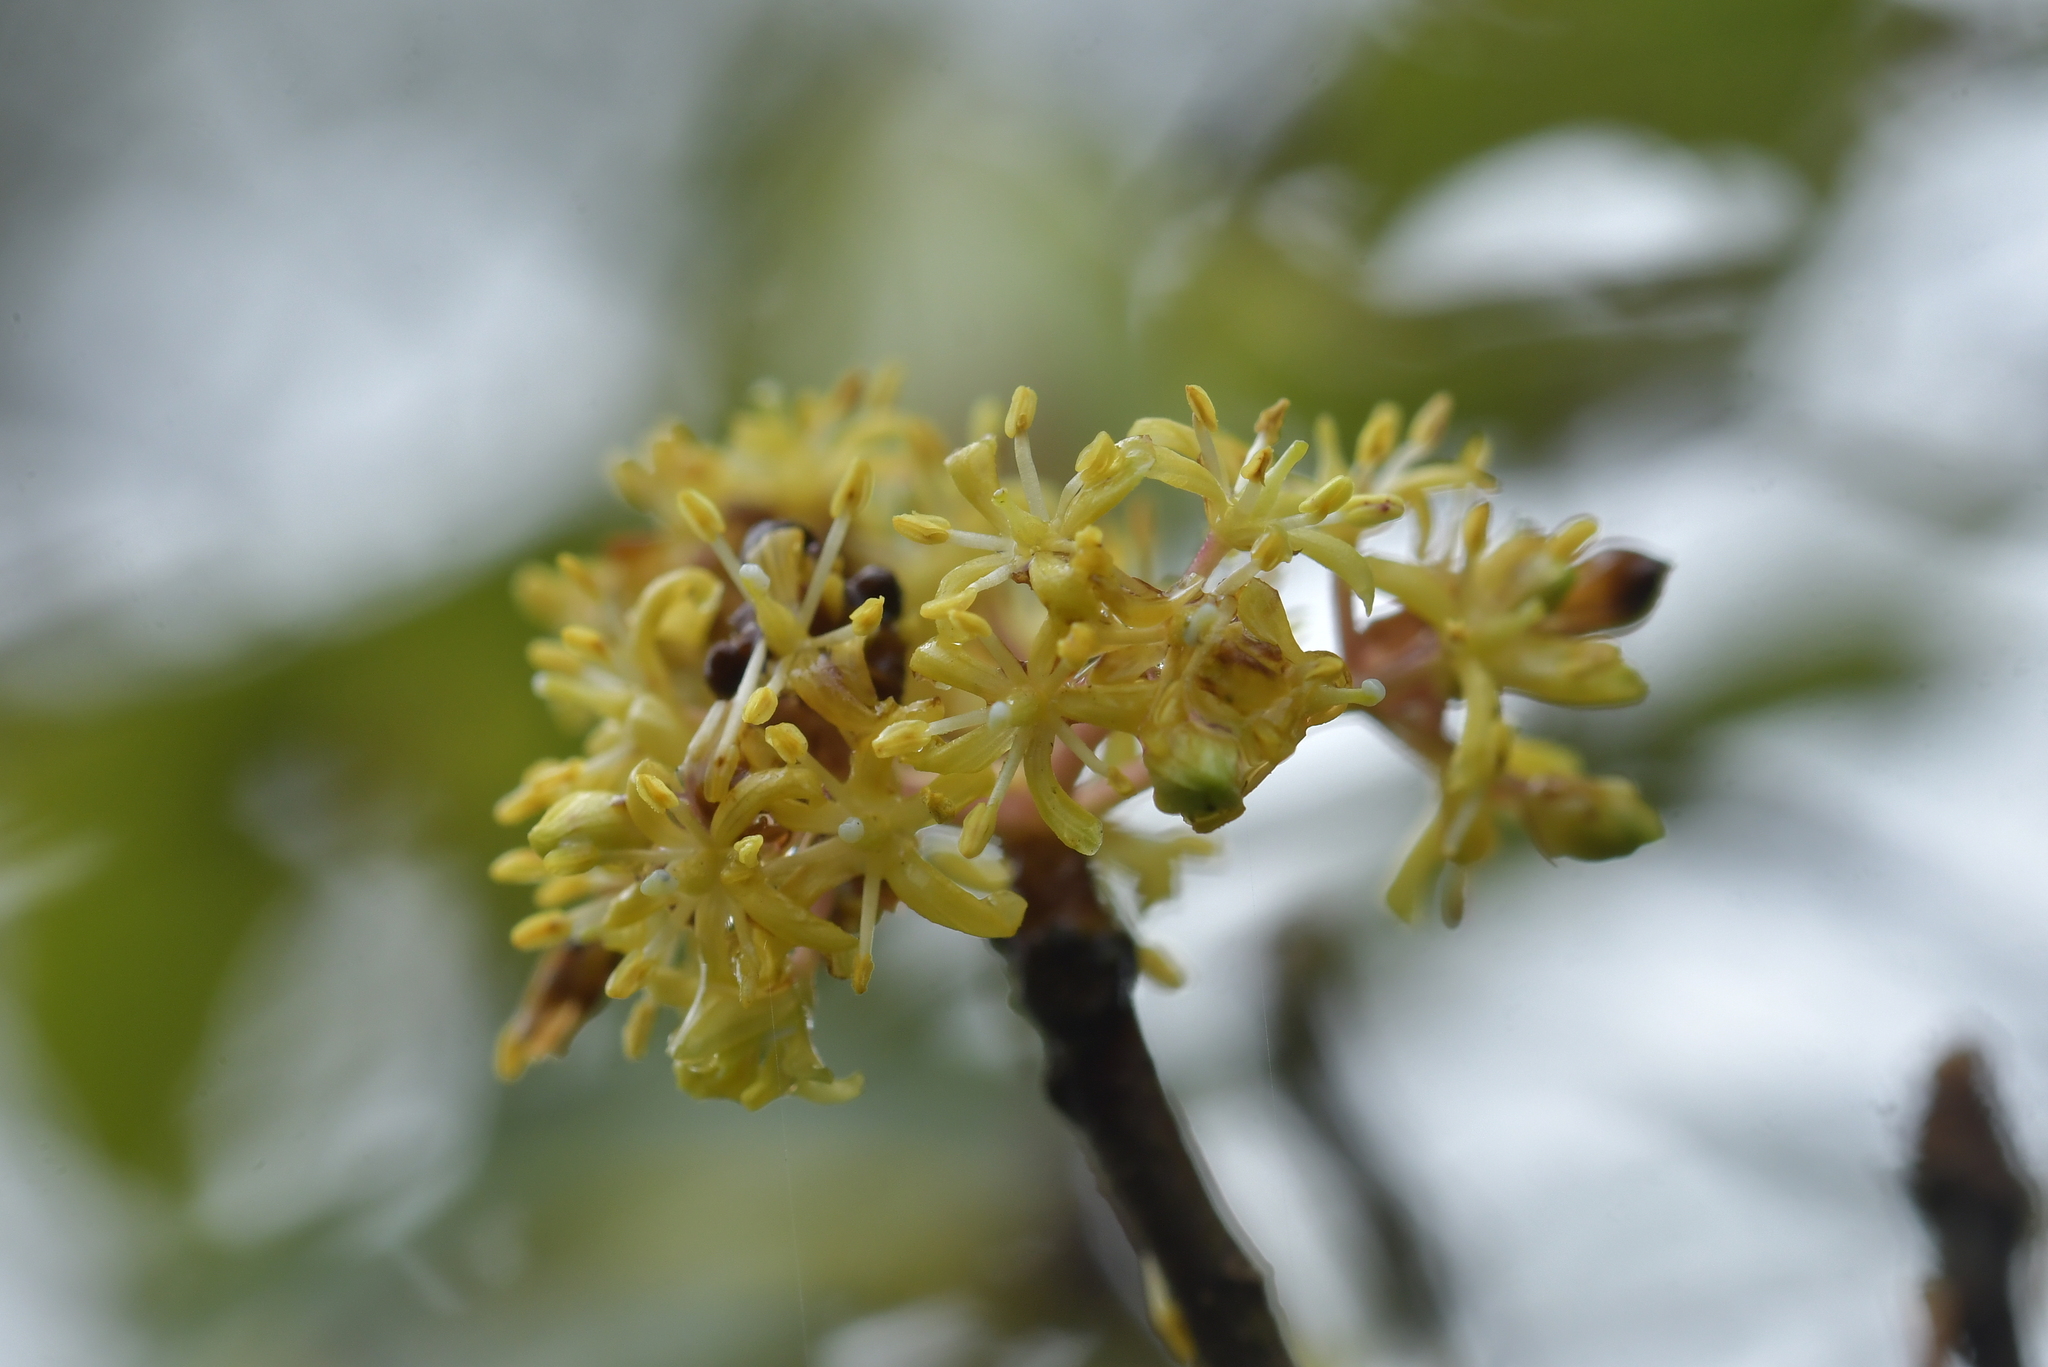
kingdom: Plantae
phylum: Tracheophyta
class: Magnoliopsida
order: Apiales
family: Pittosporaceae
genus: Pittosporum
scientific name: Pittosporum eugenioides
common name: Lemonwood
